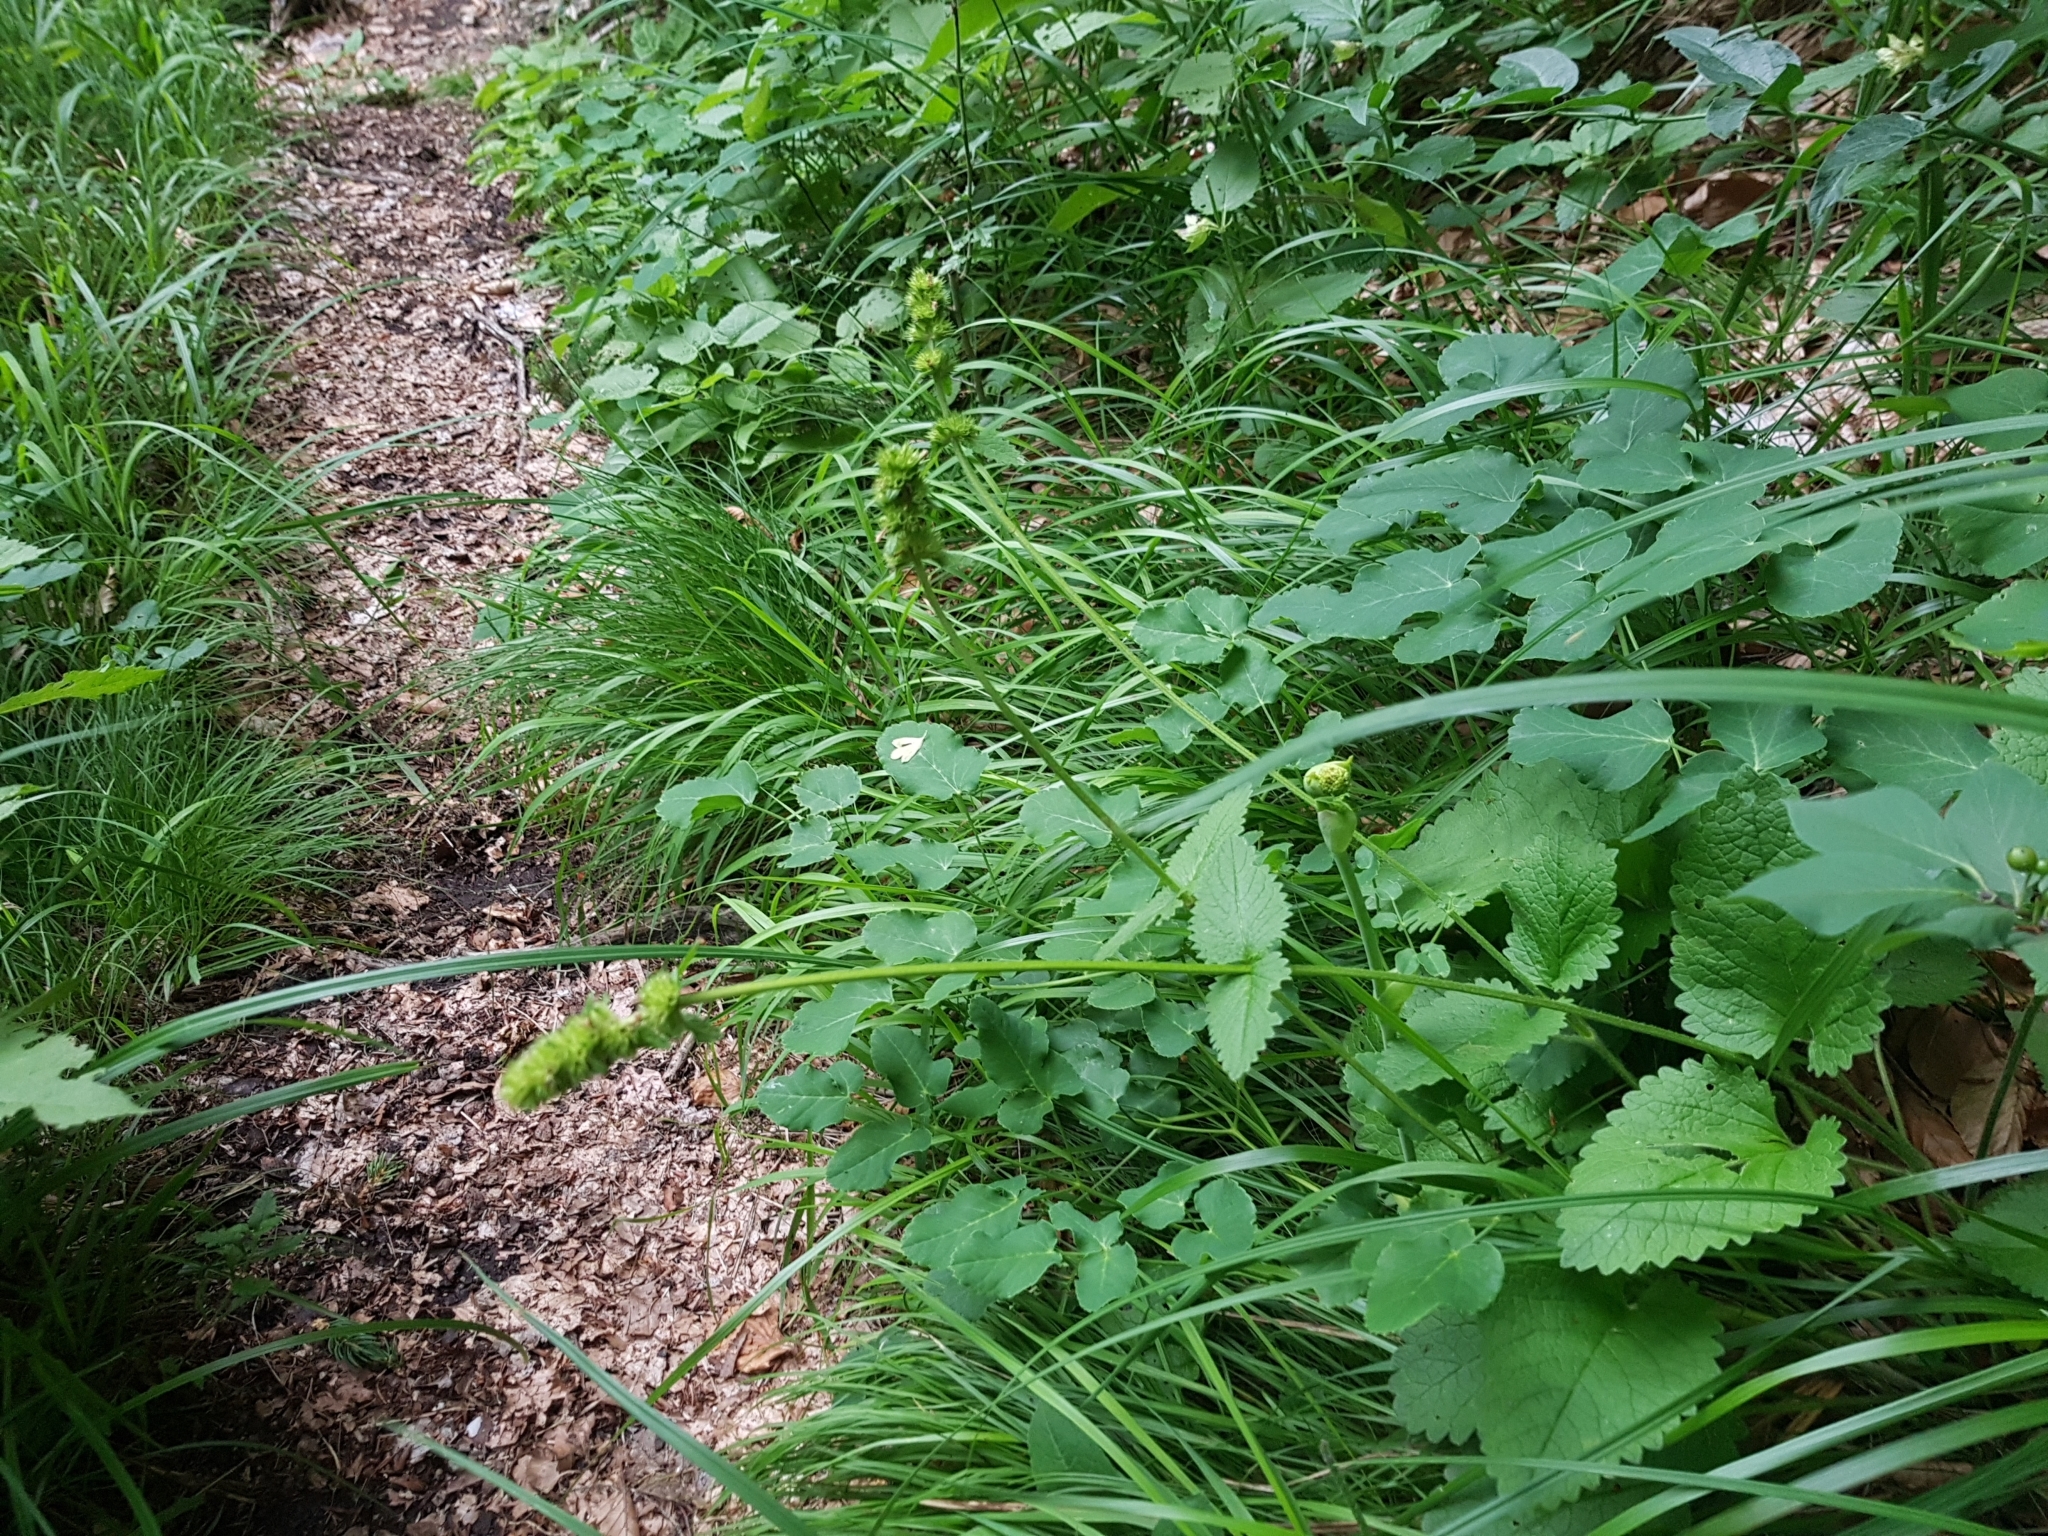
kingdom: Plantae
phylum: Tracheophyta
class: Magnoliopsida
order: Lamiales
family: Lamiaceae
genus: Betonica
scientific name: Betonica alopecuros
